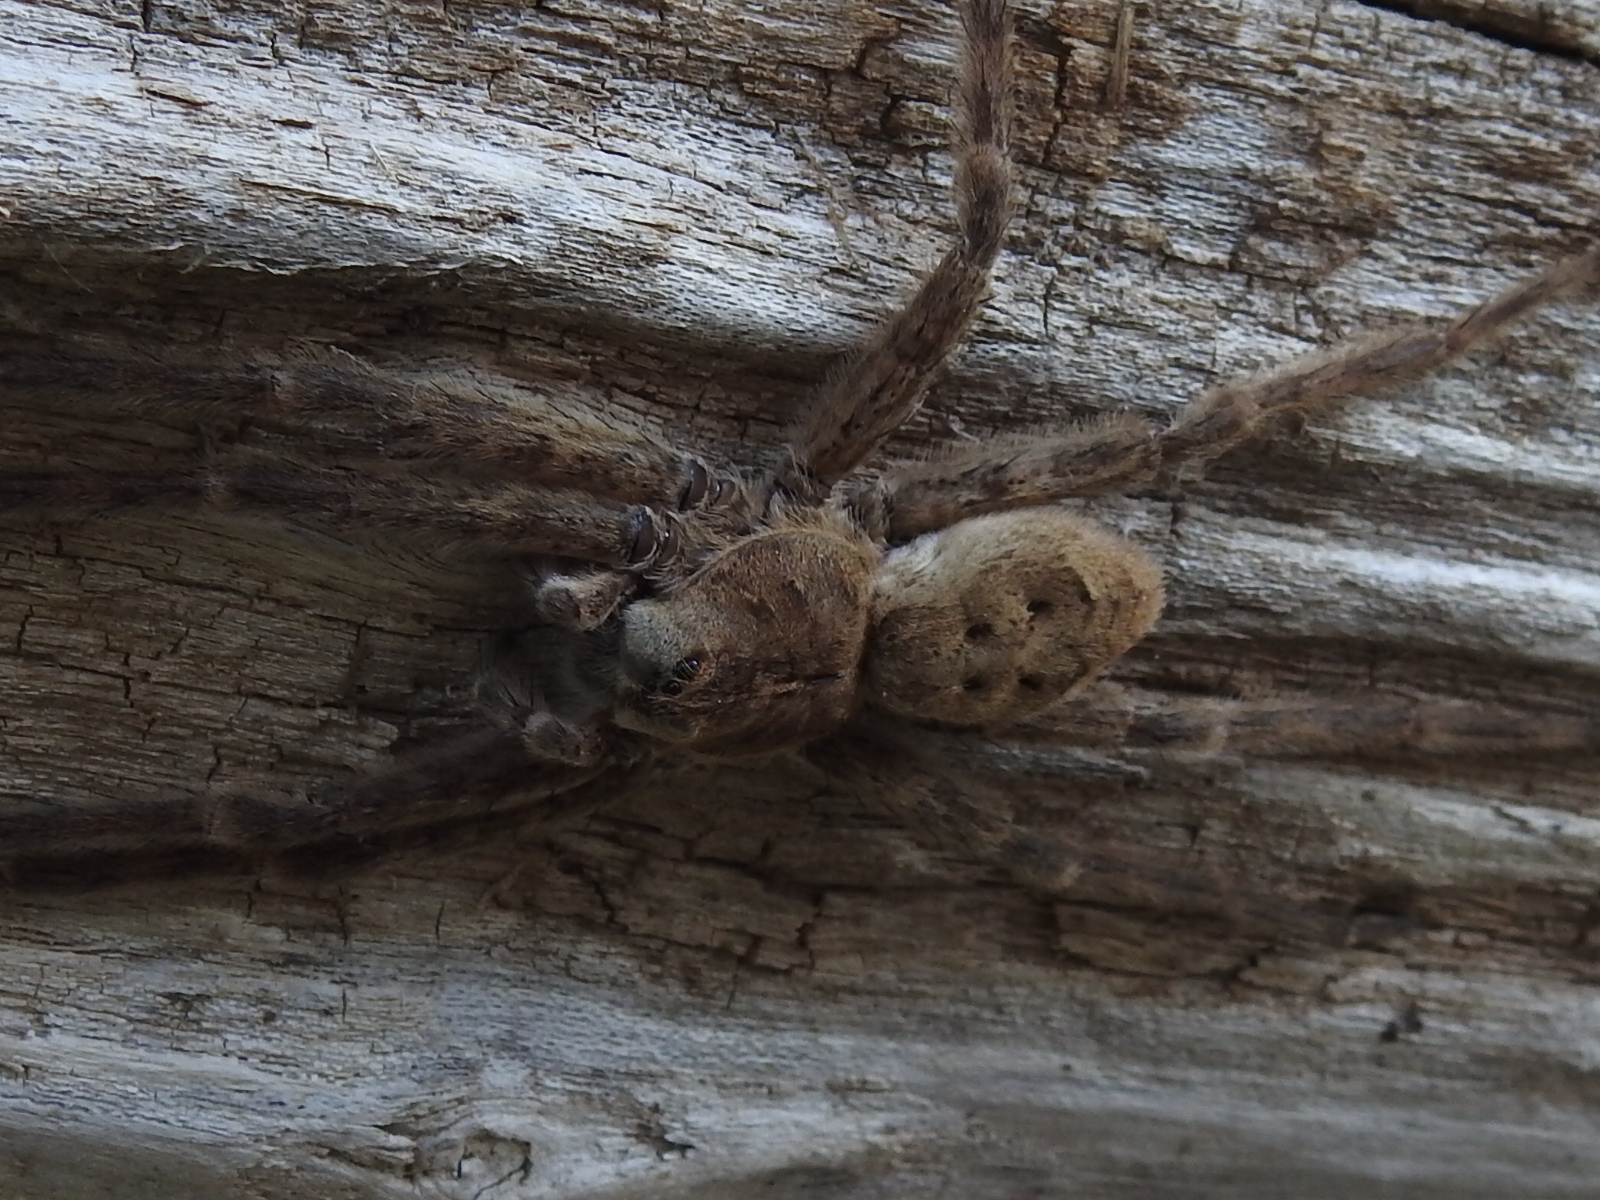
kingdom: Animalia
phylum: Arthropoda
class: Arachnida
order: Araneae
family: Pisauridae
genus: Dolomedes
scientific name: Dolomedes albineus
